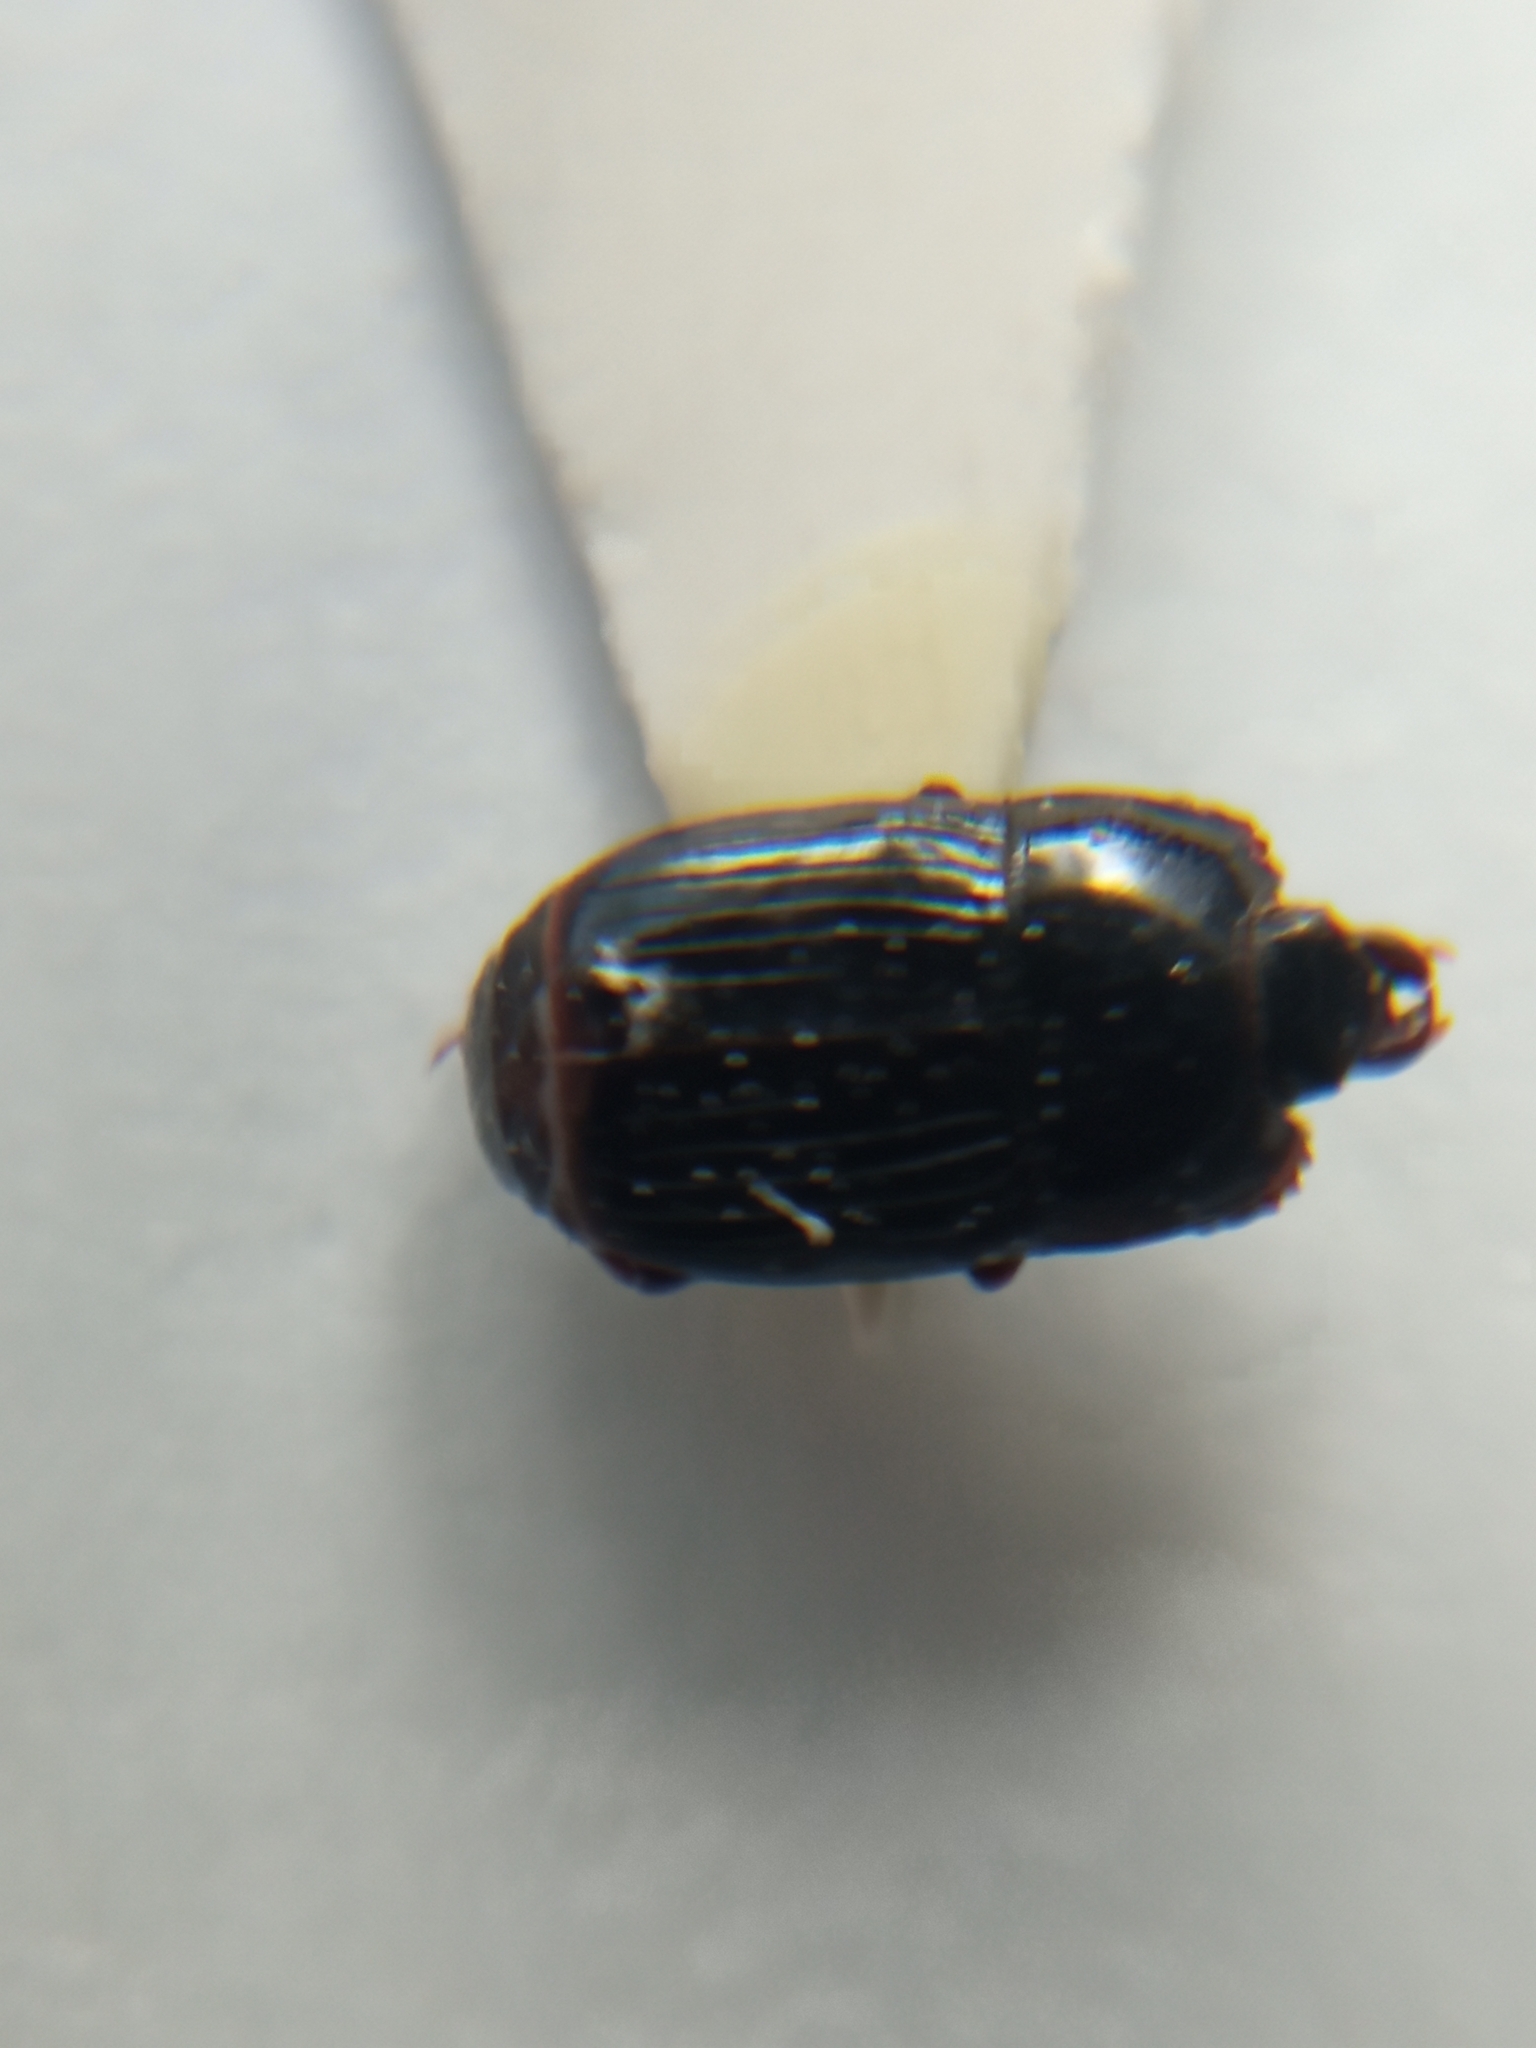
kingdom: Animalia
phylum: Arthropoda
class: Insecta
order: Coleoptera
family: Histeridae
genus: Platysoma
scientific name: Platysoma deplanatum
